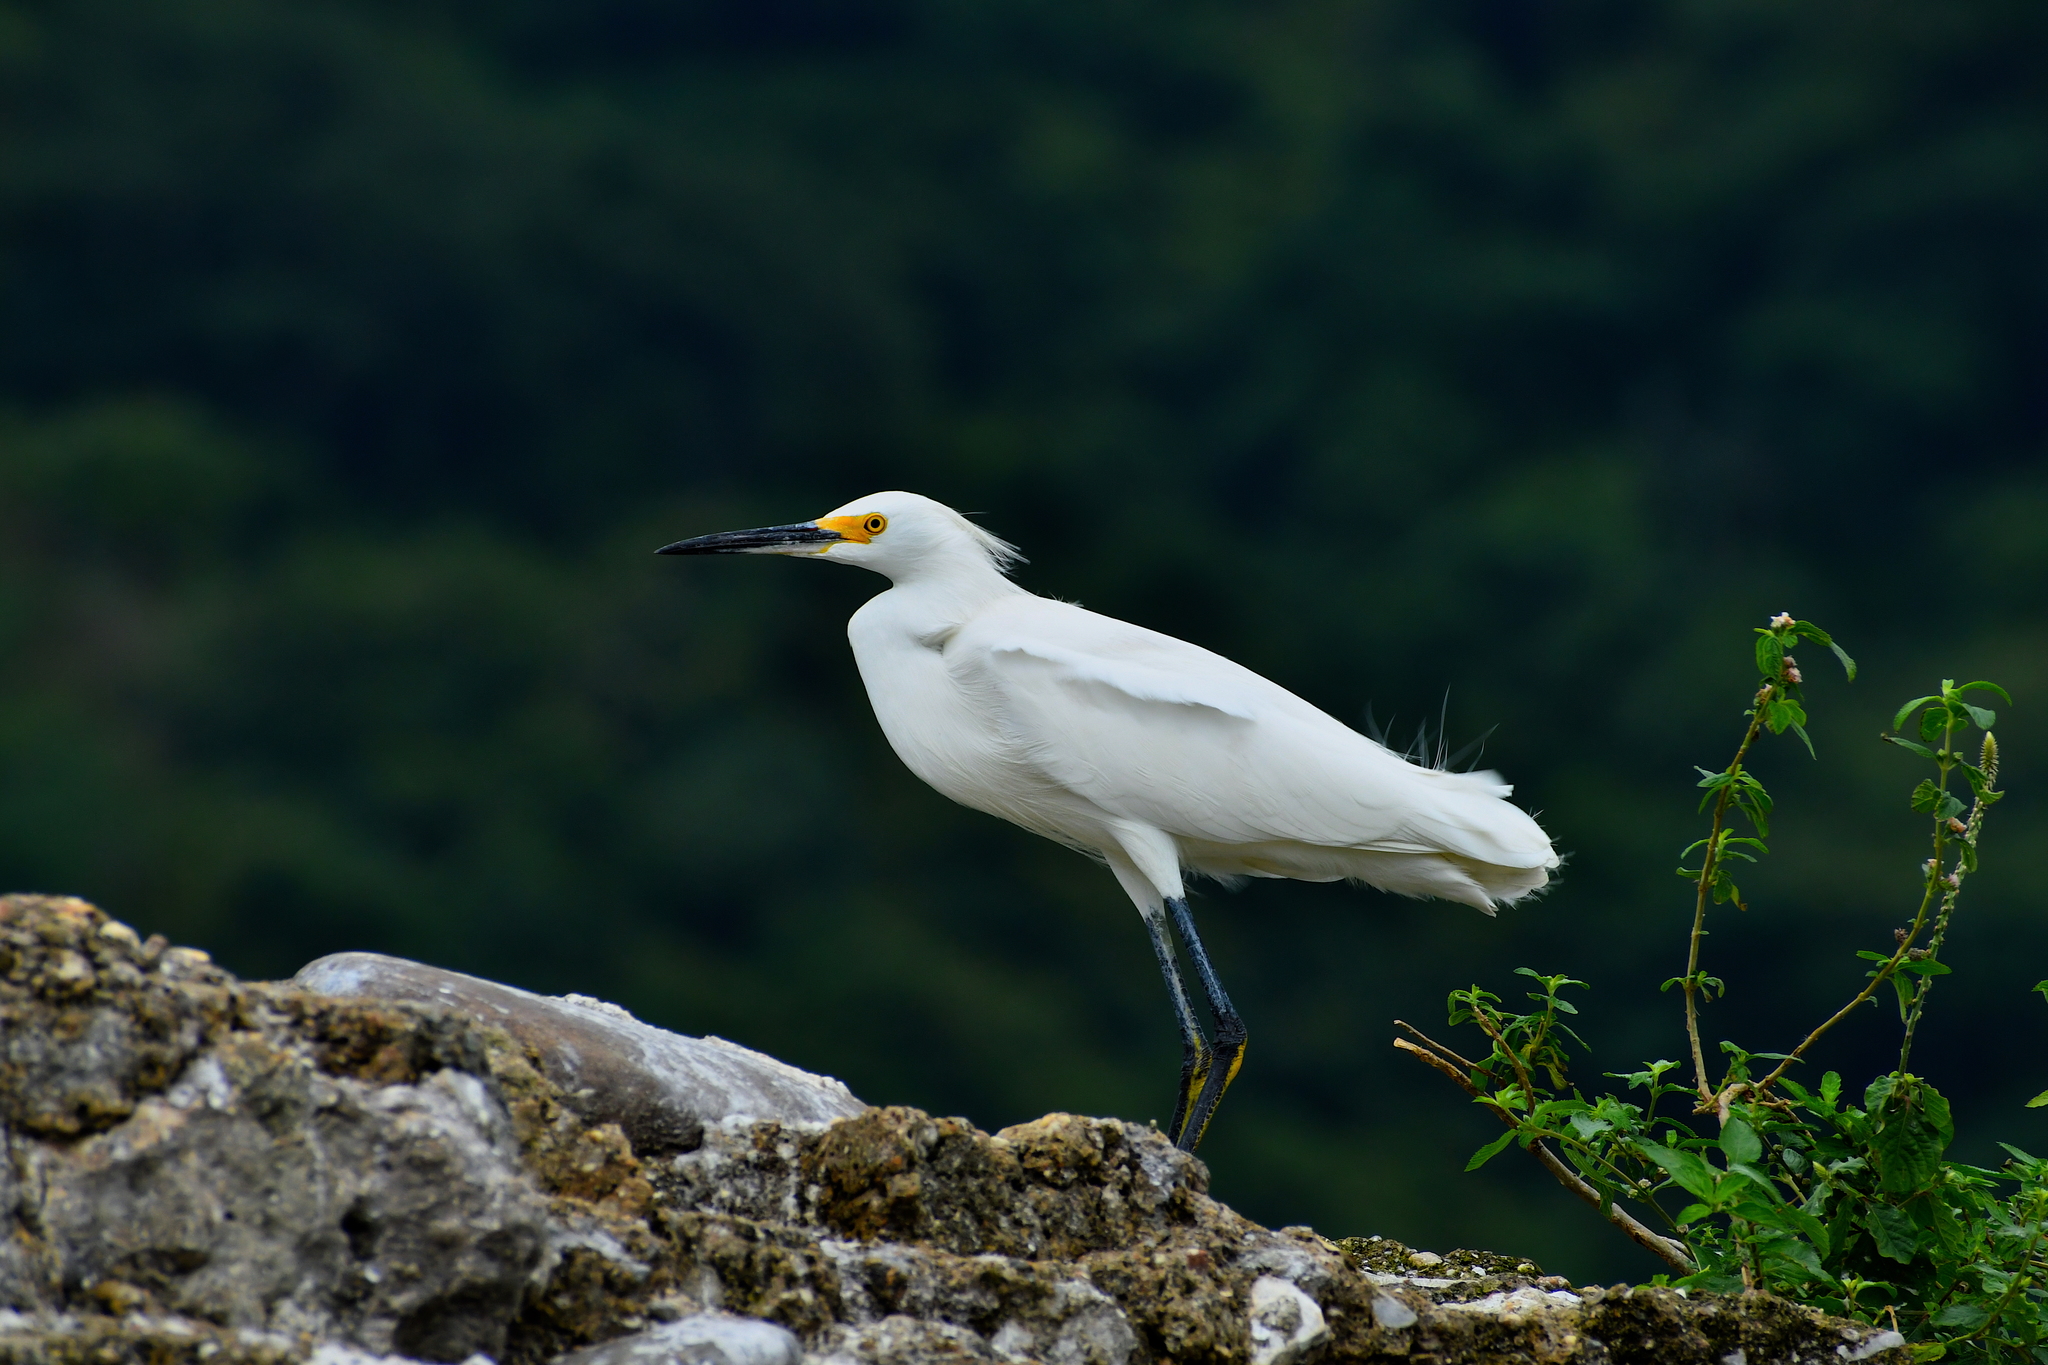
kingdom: Animalia
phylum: Chordata
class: Aves
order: Pelecaniformes
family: Ardeidae
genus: Egretta
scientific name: Egretta thula
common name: Snowy egret
